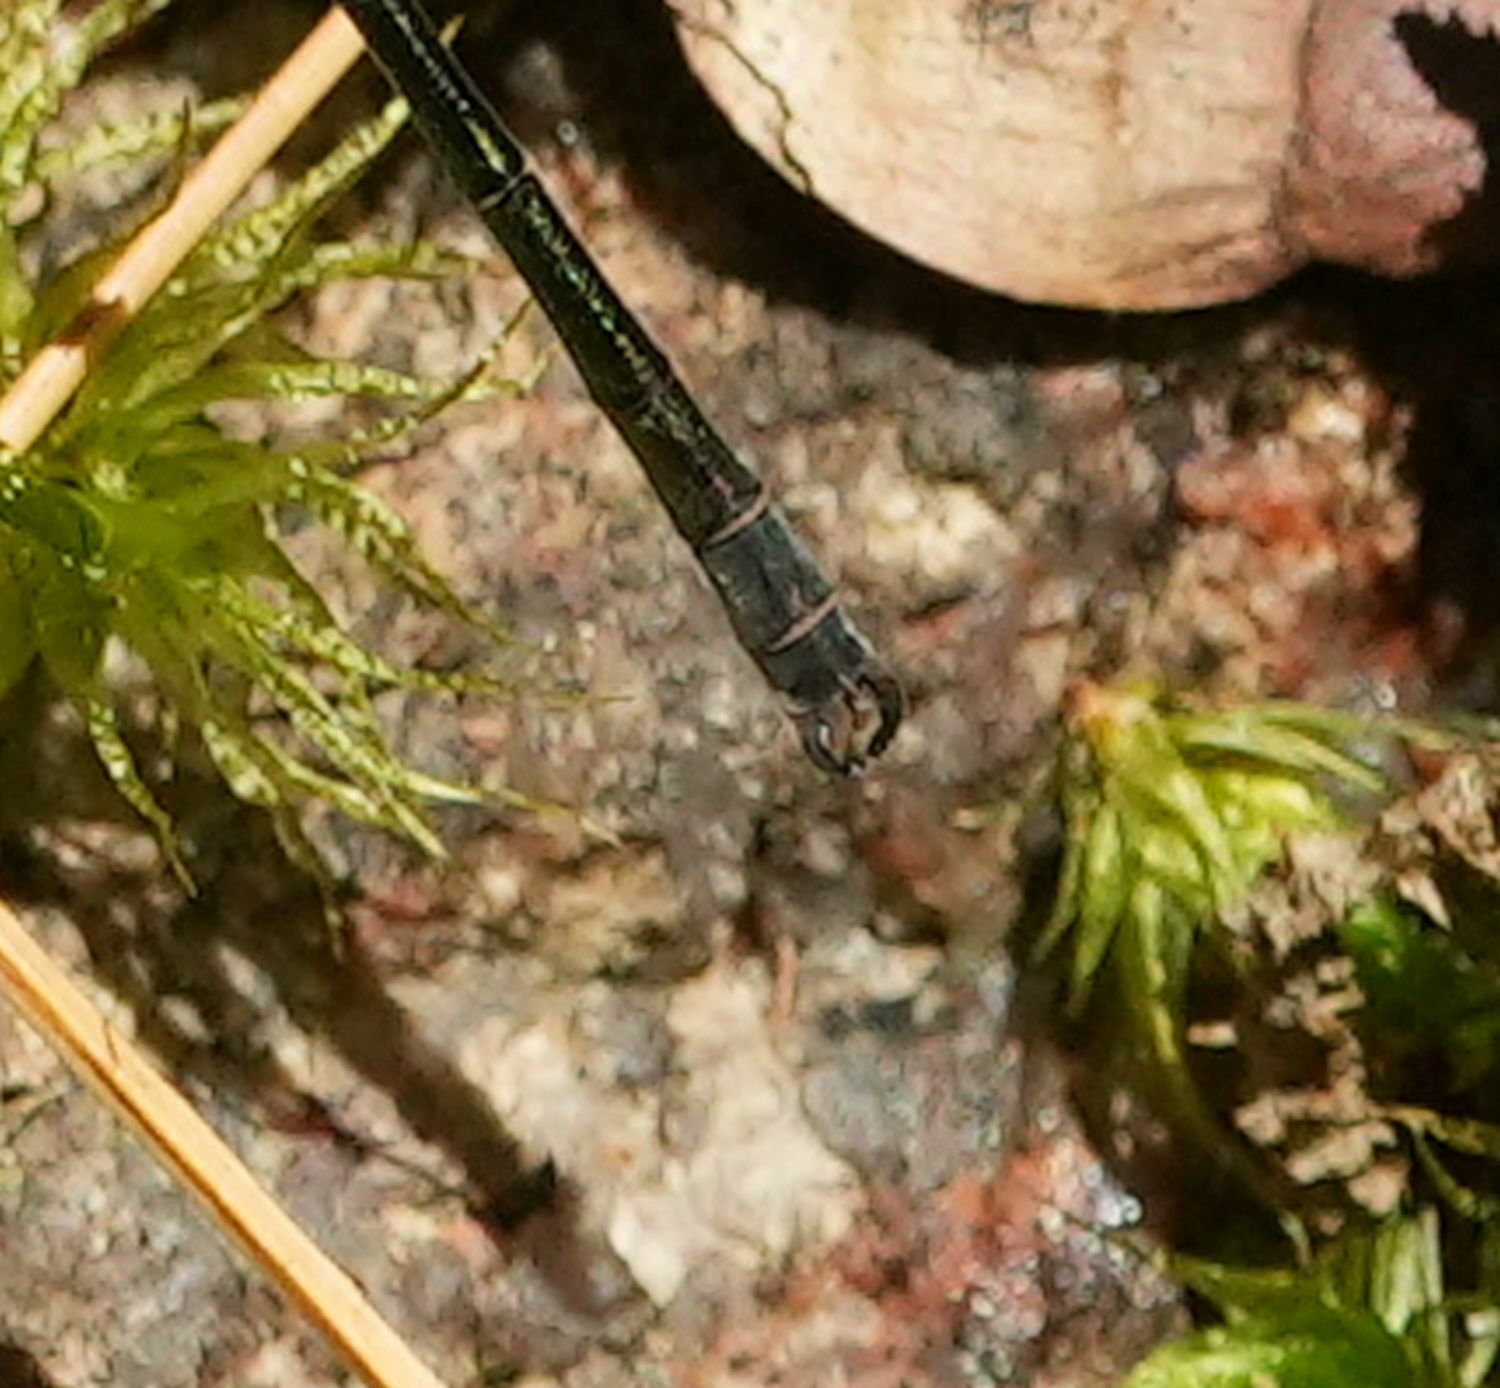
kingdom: Animalia
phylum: Arthropoda
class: Insecta
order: Odonata
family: Lestidae
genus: Lestes
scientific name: Lestes dryas
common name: Scarce emerald damselfly
